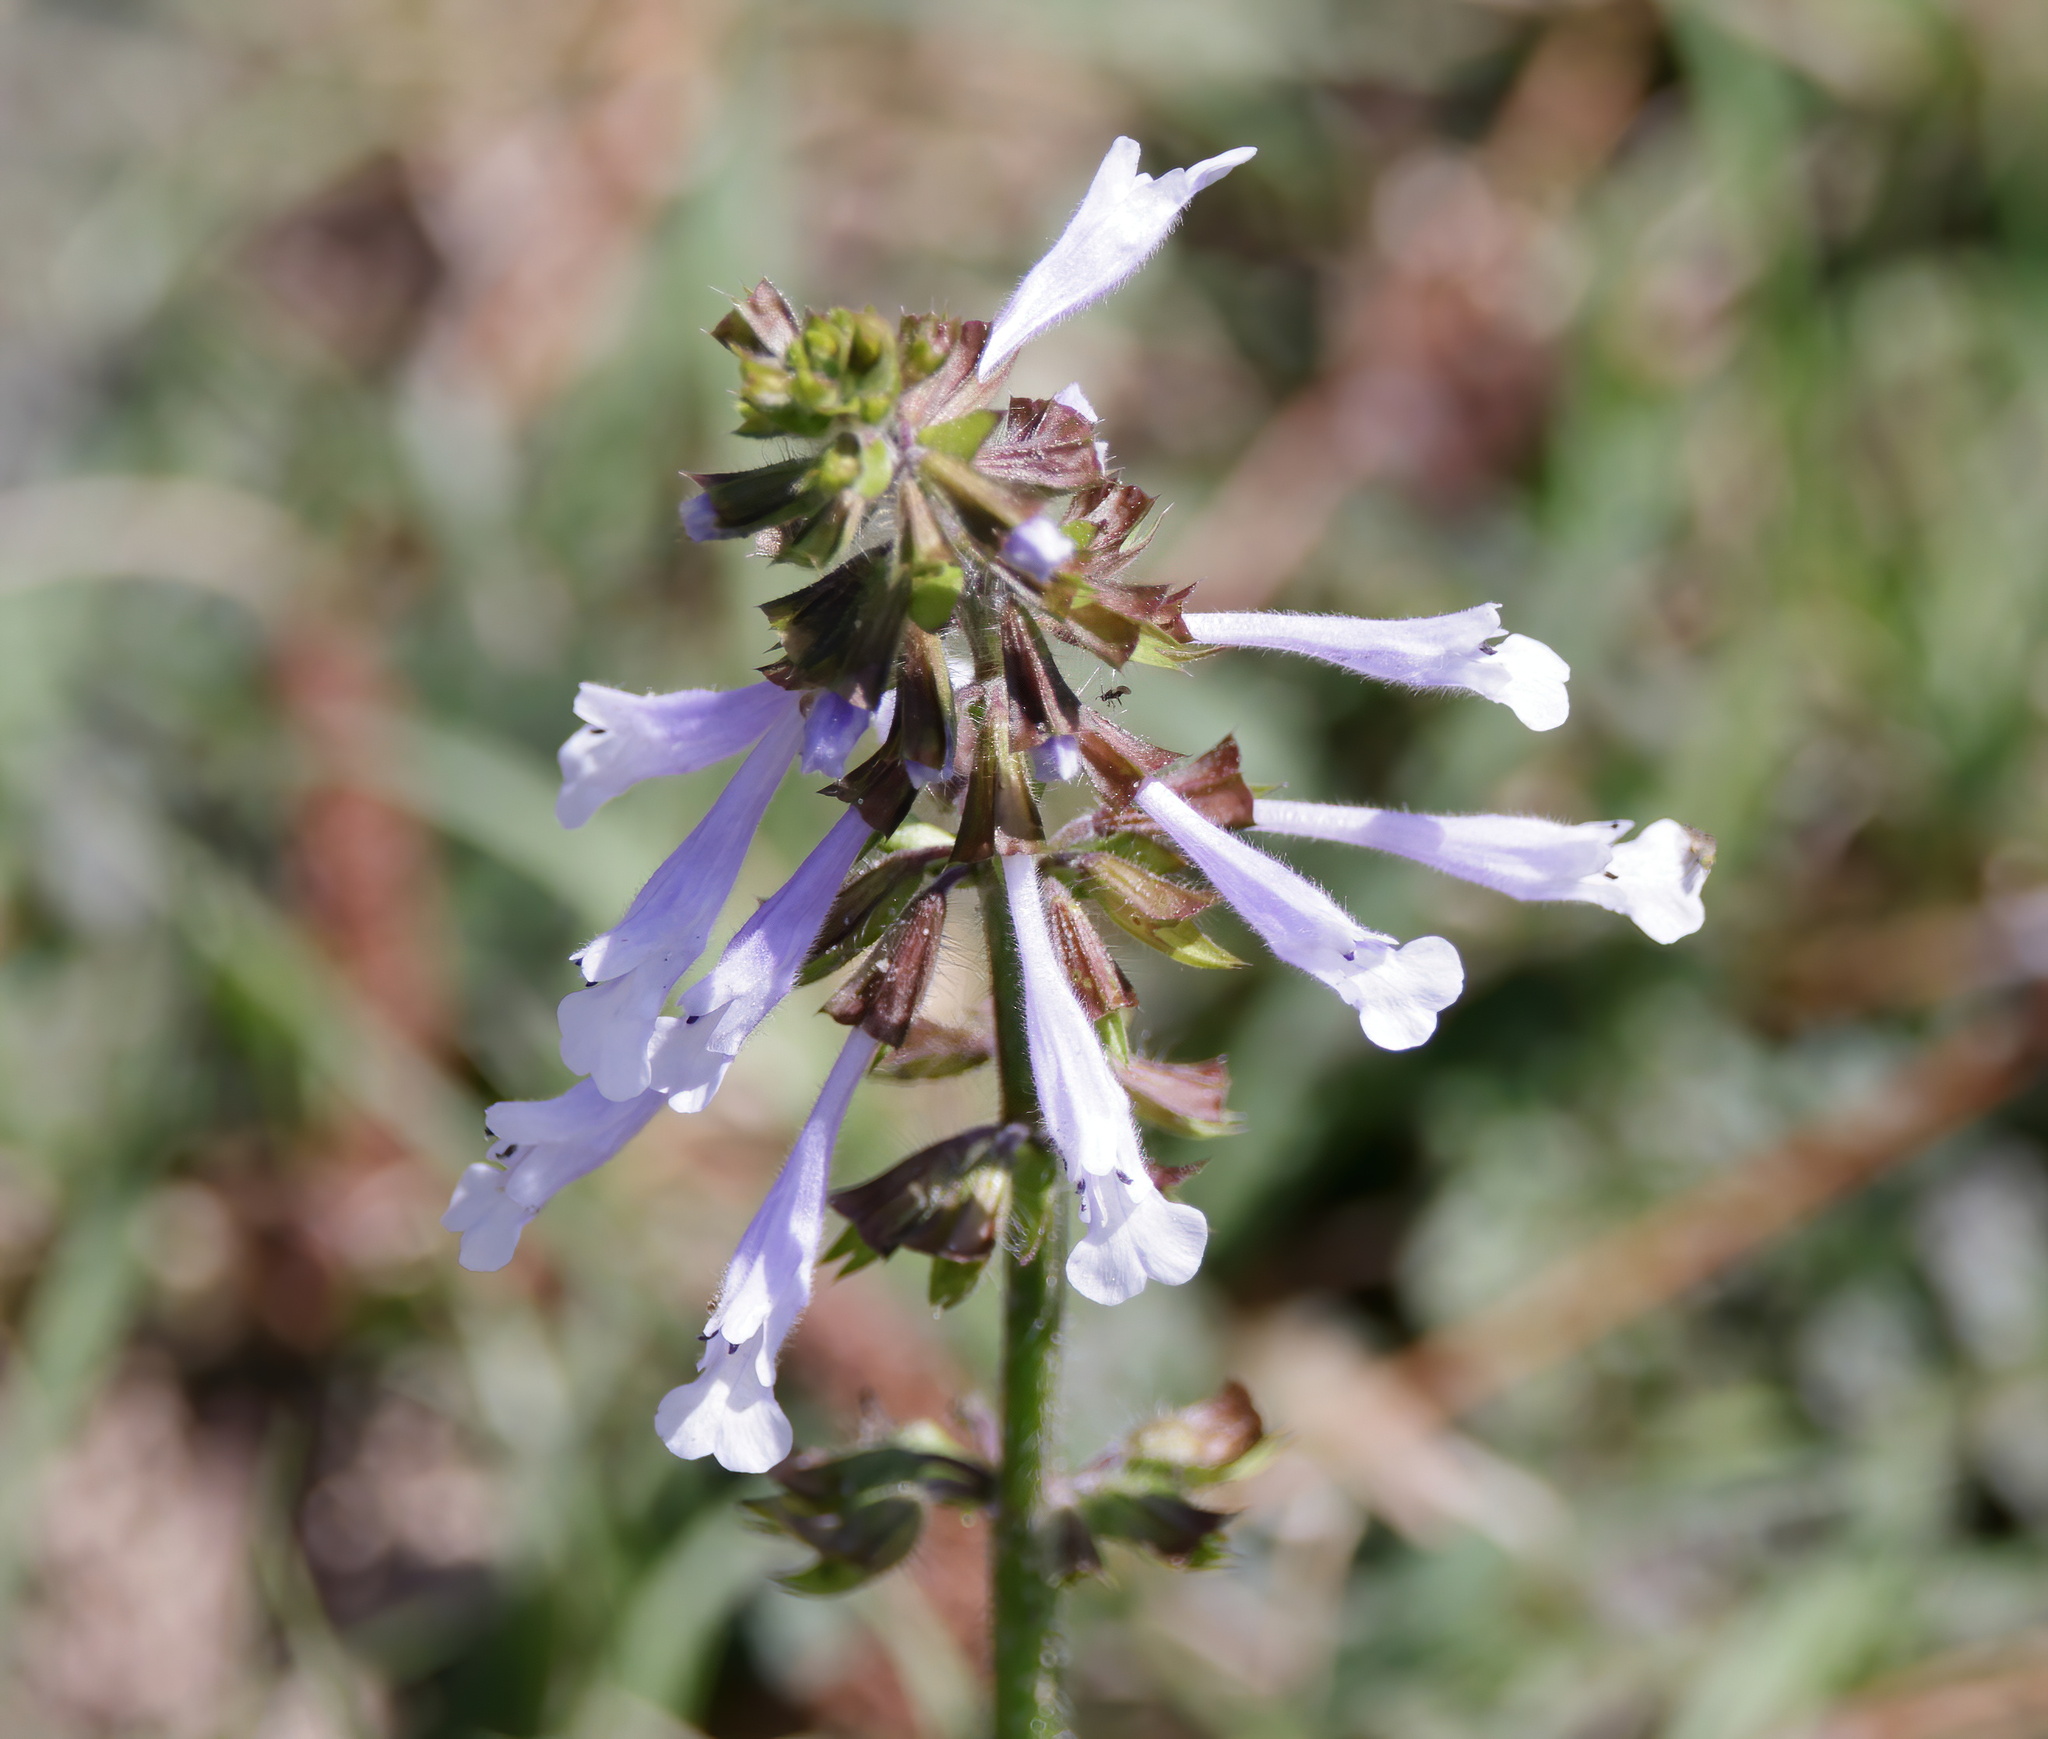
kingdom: Plantae
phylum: Tracheophyta
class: Magnoliopsida
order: Lamiales
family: Lamiaceae
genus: Salvia
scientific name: Salvia lyrata
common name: Cancerweed
